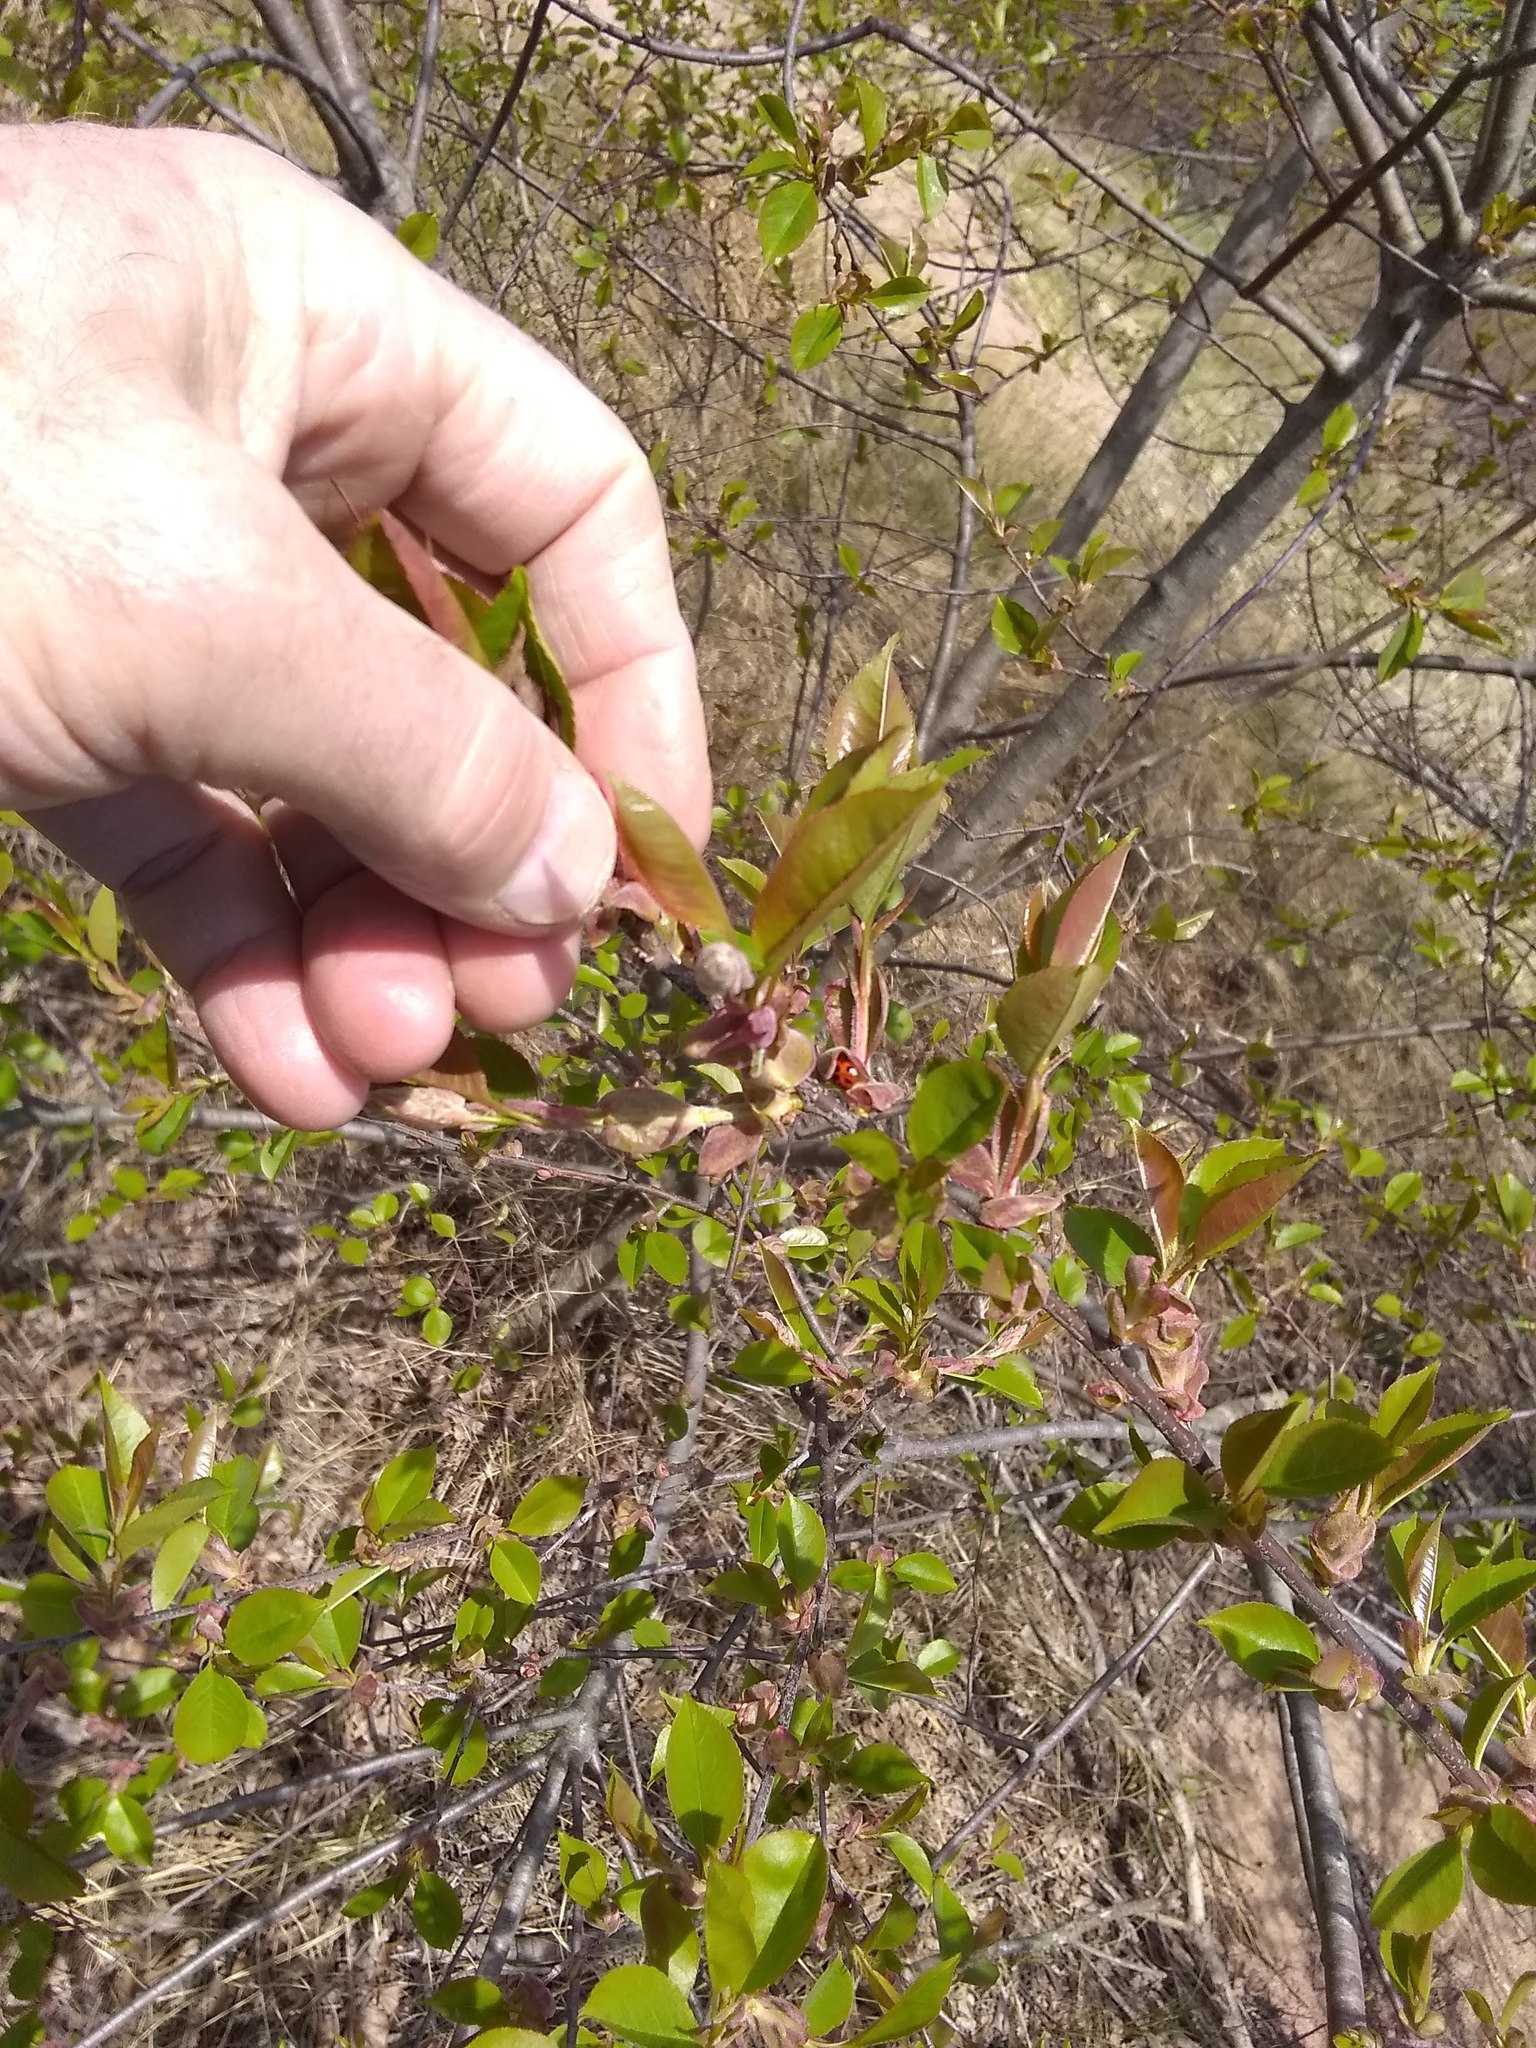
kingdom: Animalia
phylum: Arthropoda
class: Insecta
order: Coleoptera
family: Coccinellidae
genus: Harmonia
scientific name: Harmonia axyridis
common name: Harlequin ladybird
